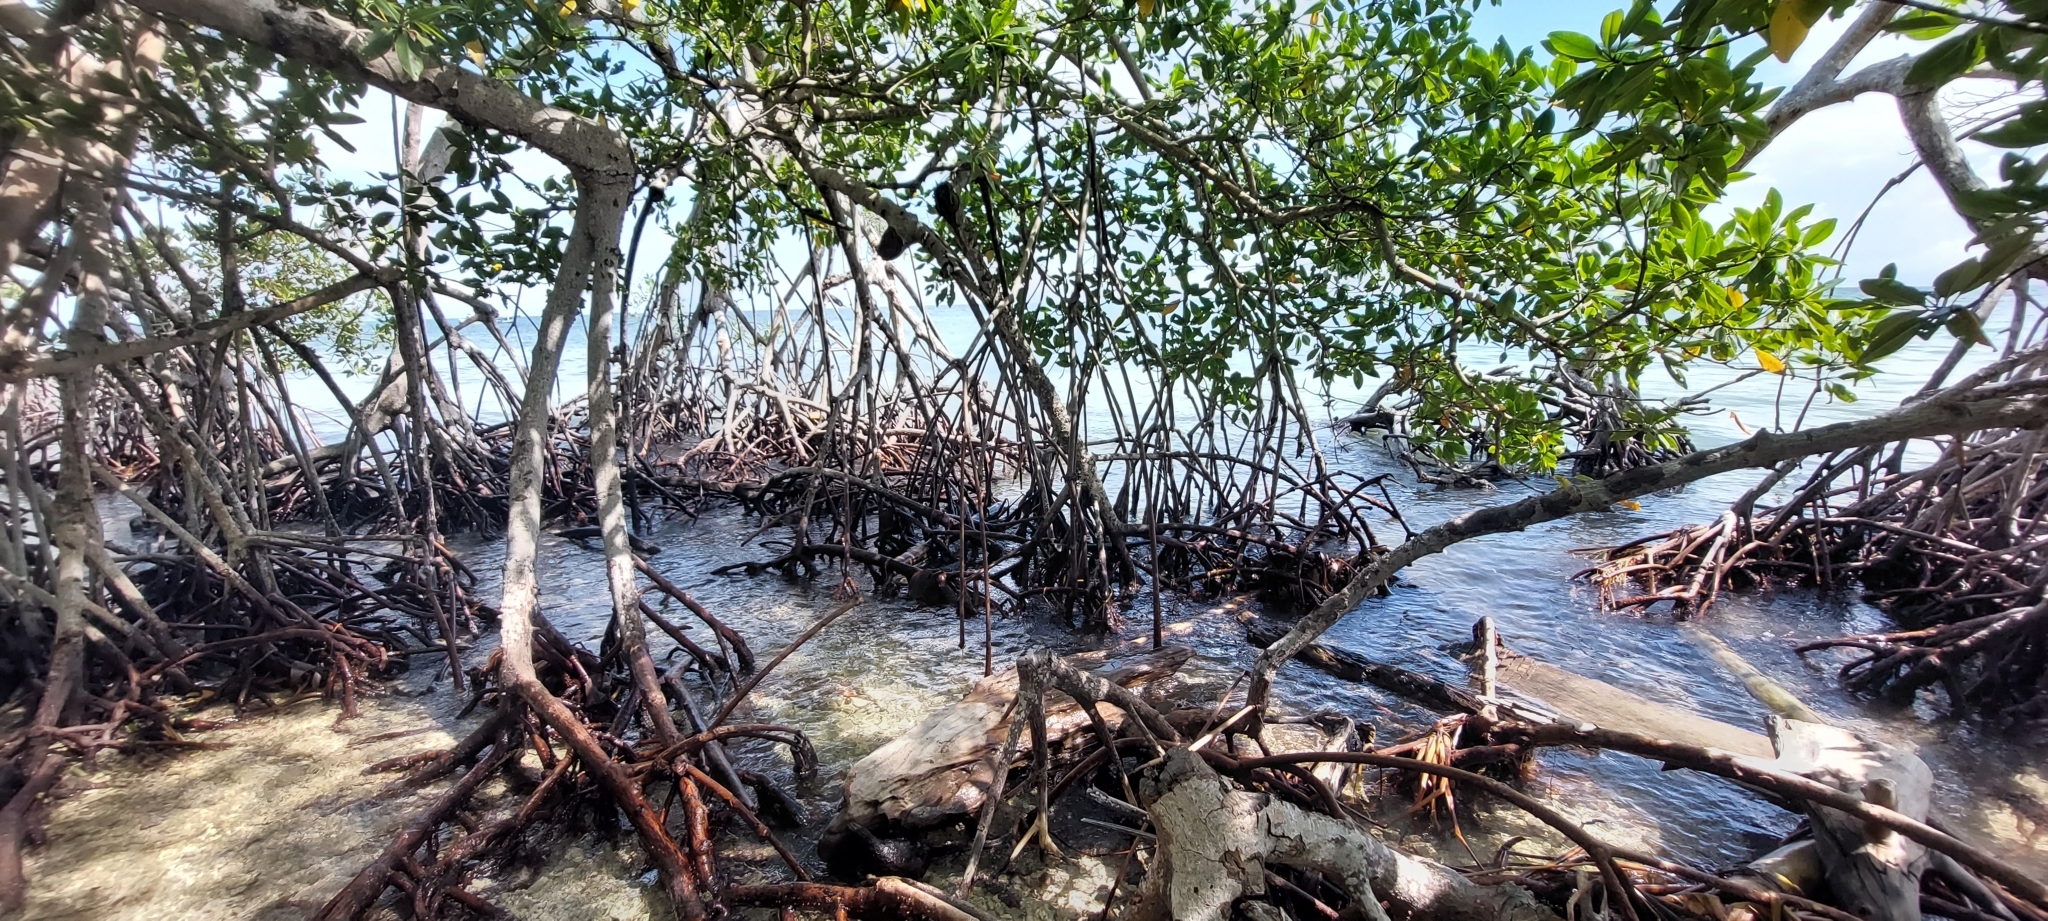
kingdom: Plantae
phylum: Tracheophyta
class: Magnoliopsida
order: Malpighiales
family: Rhizophoraceae
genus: Rhizophora
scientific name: Rhizophora mangle
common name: Red mangrove
